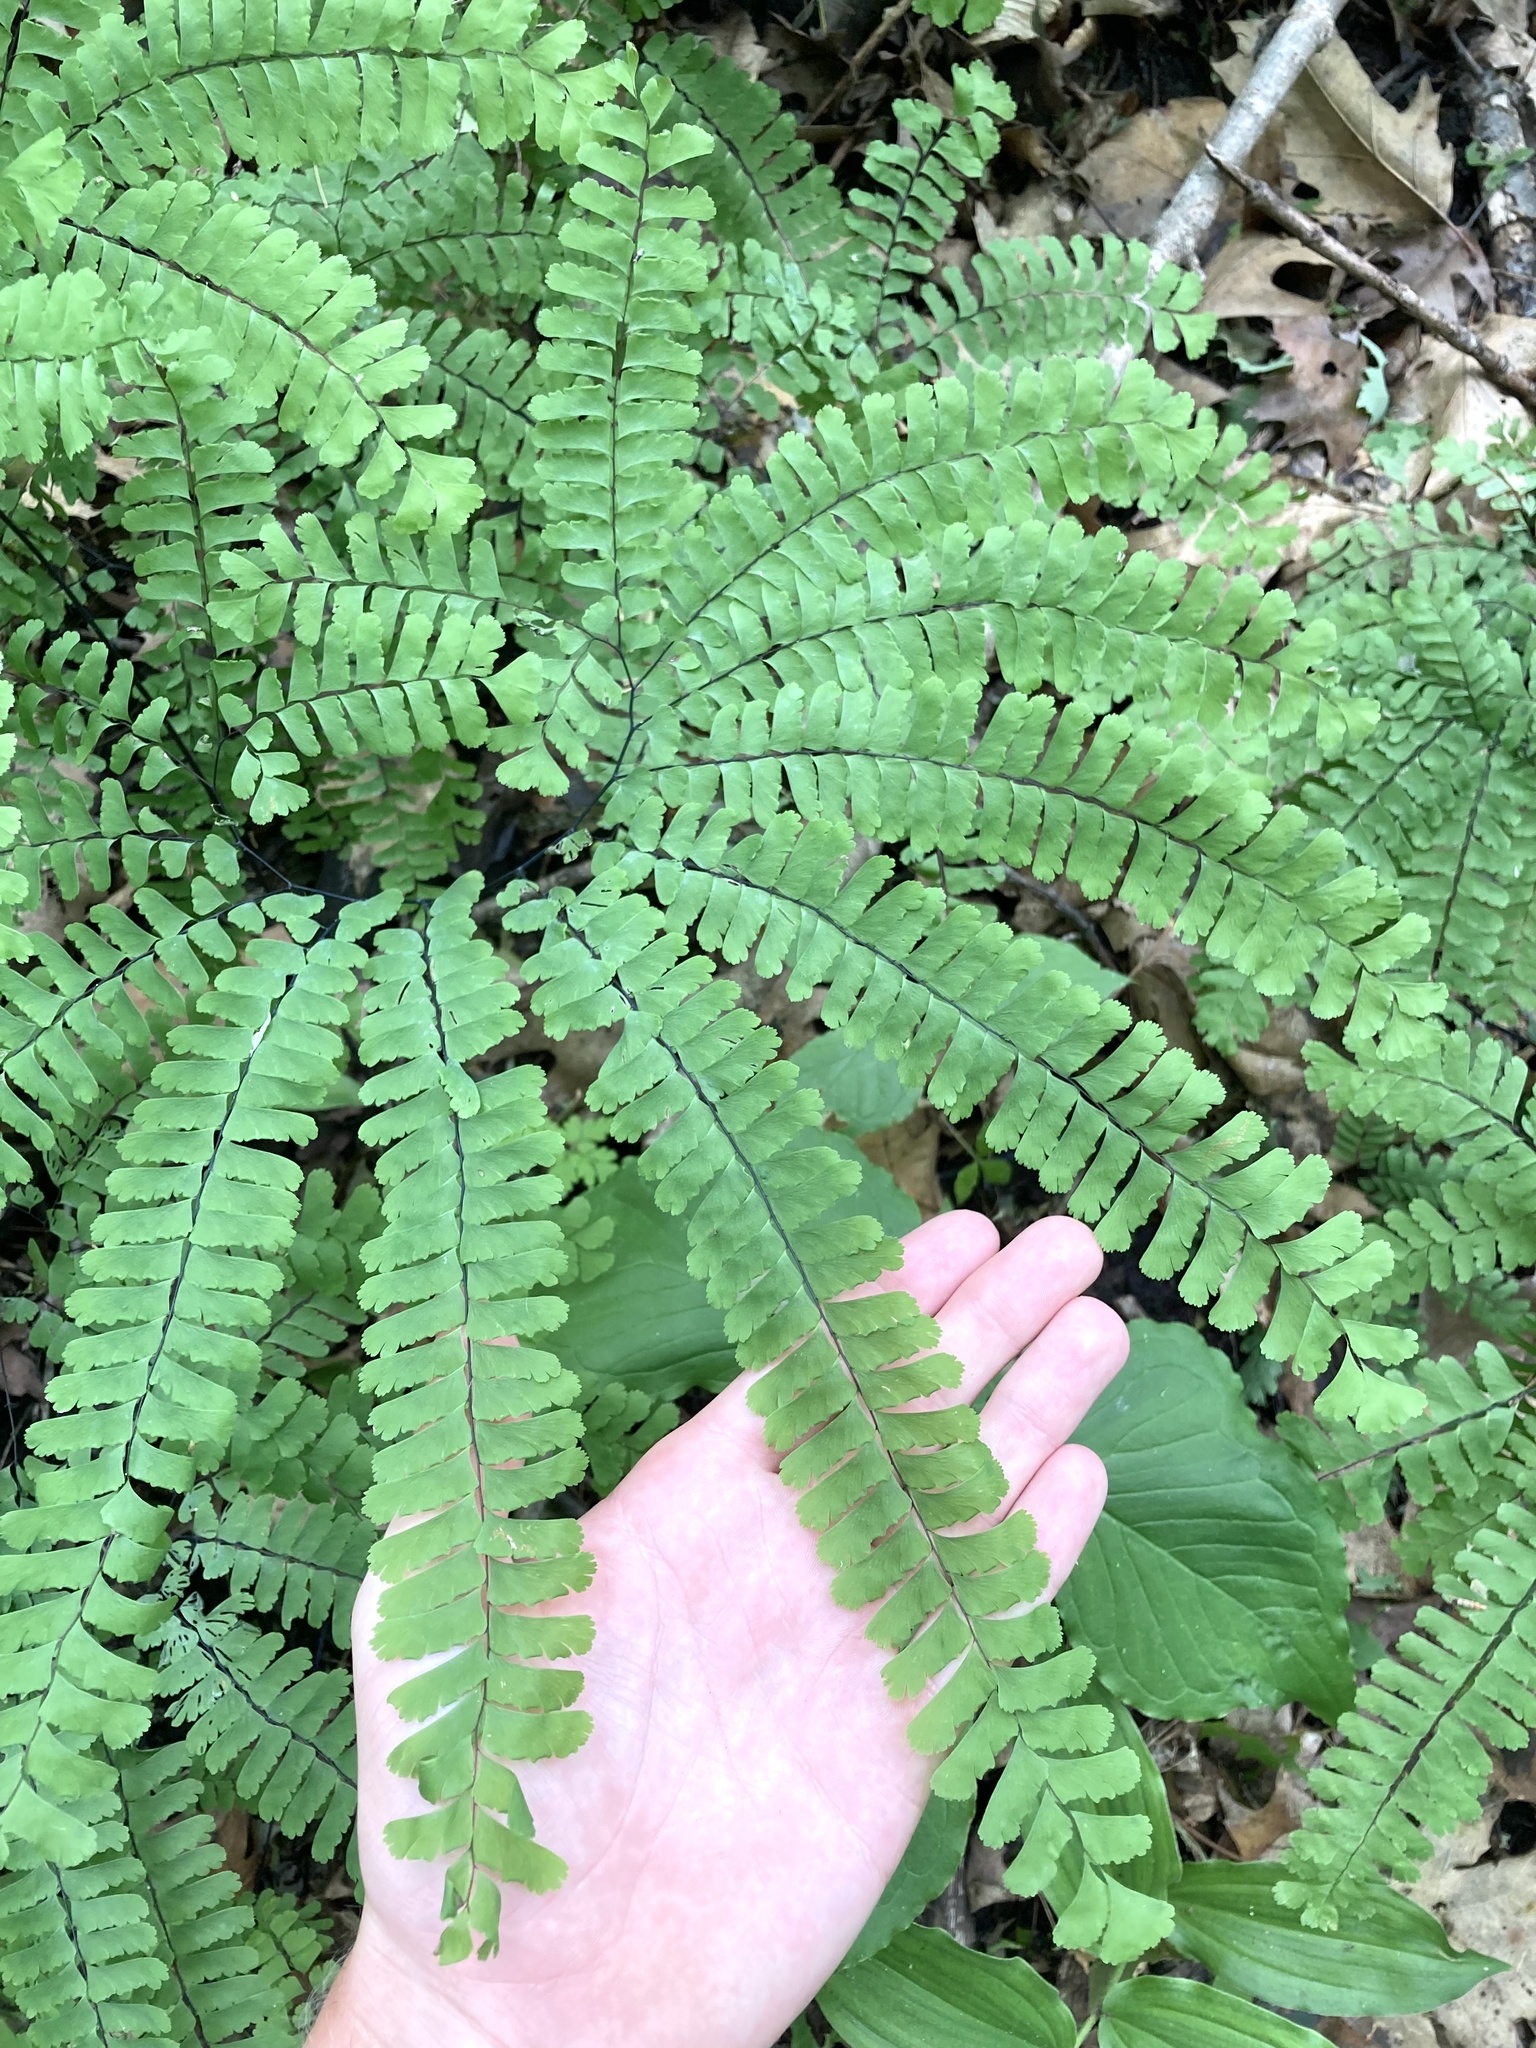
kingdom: Plantae
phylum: Tracheophyta
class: Polypodiopsida
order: Polypodiales
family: Pteridaceae
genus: Adiantum
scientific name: Adiantum pedatum
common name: Five-finger fern
